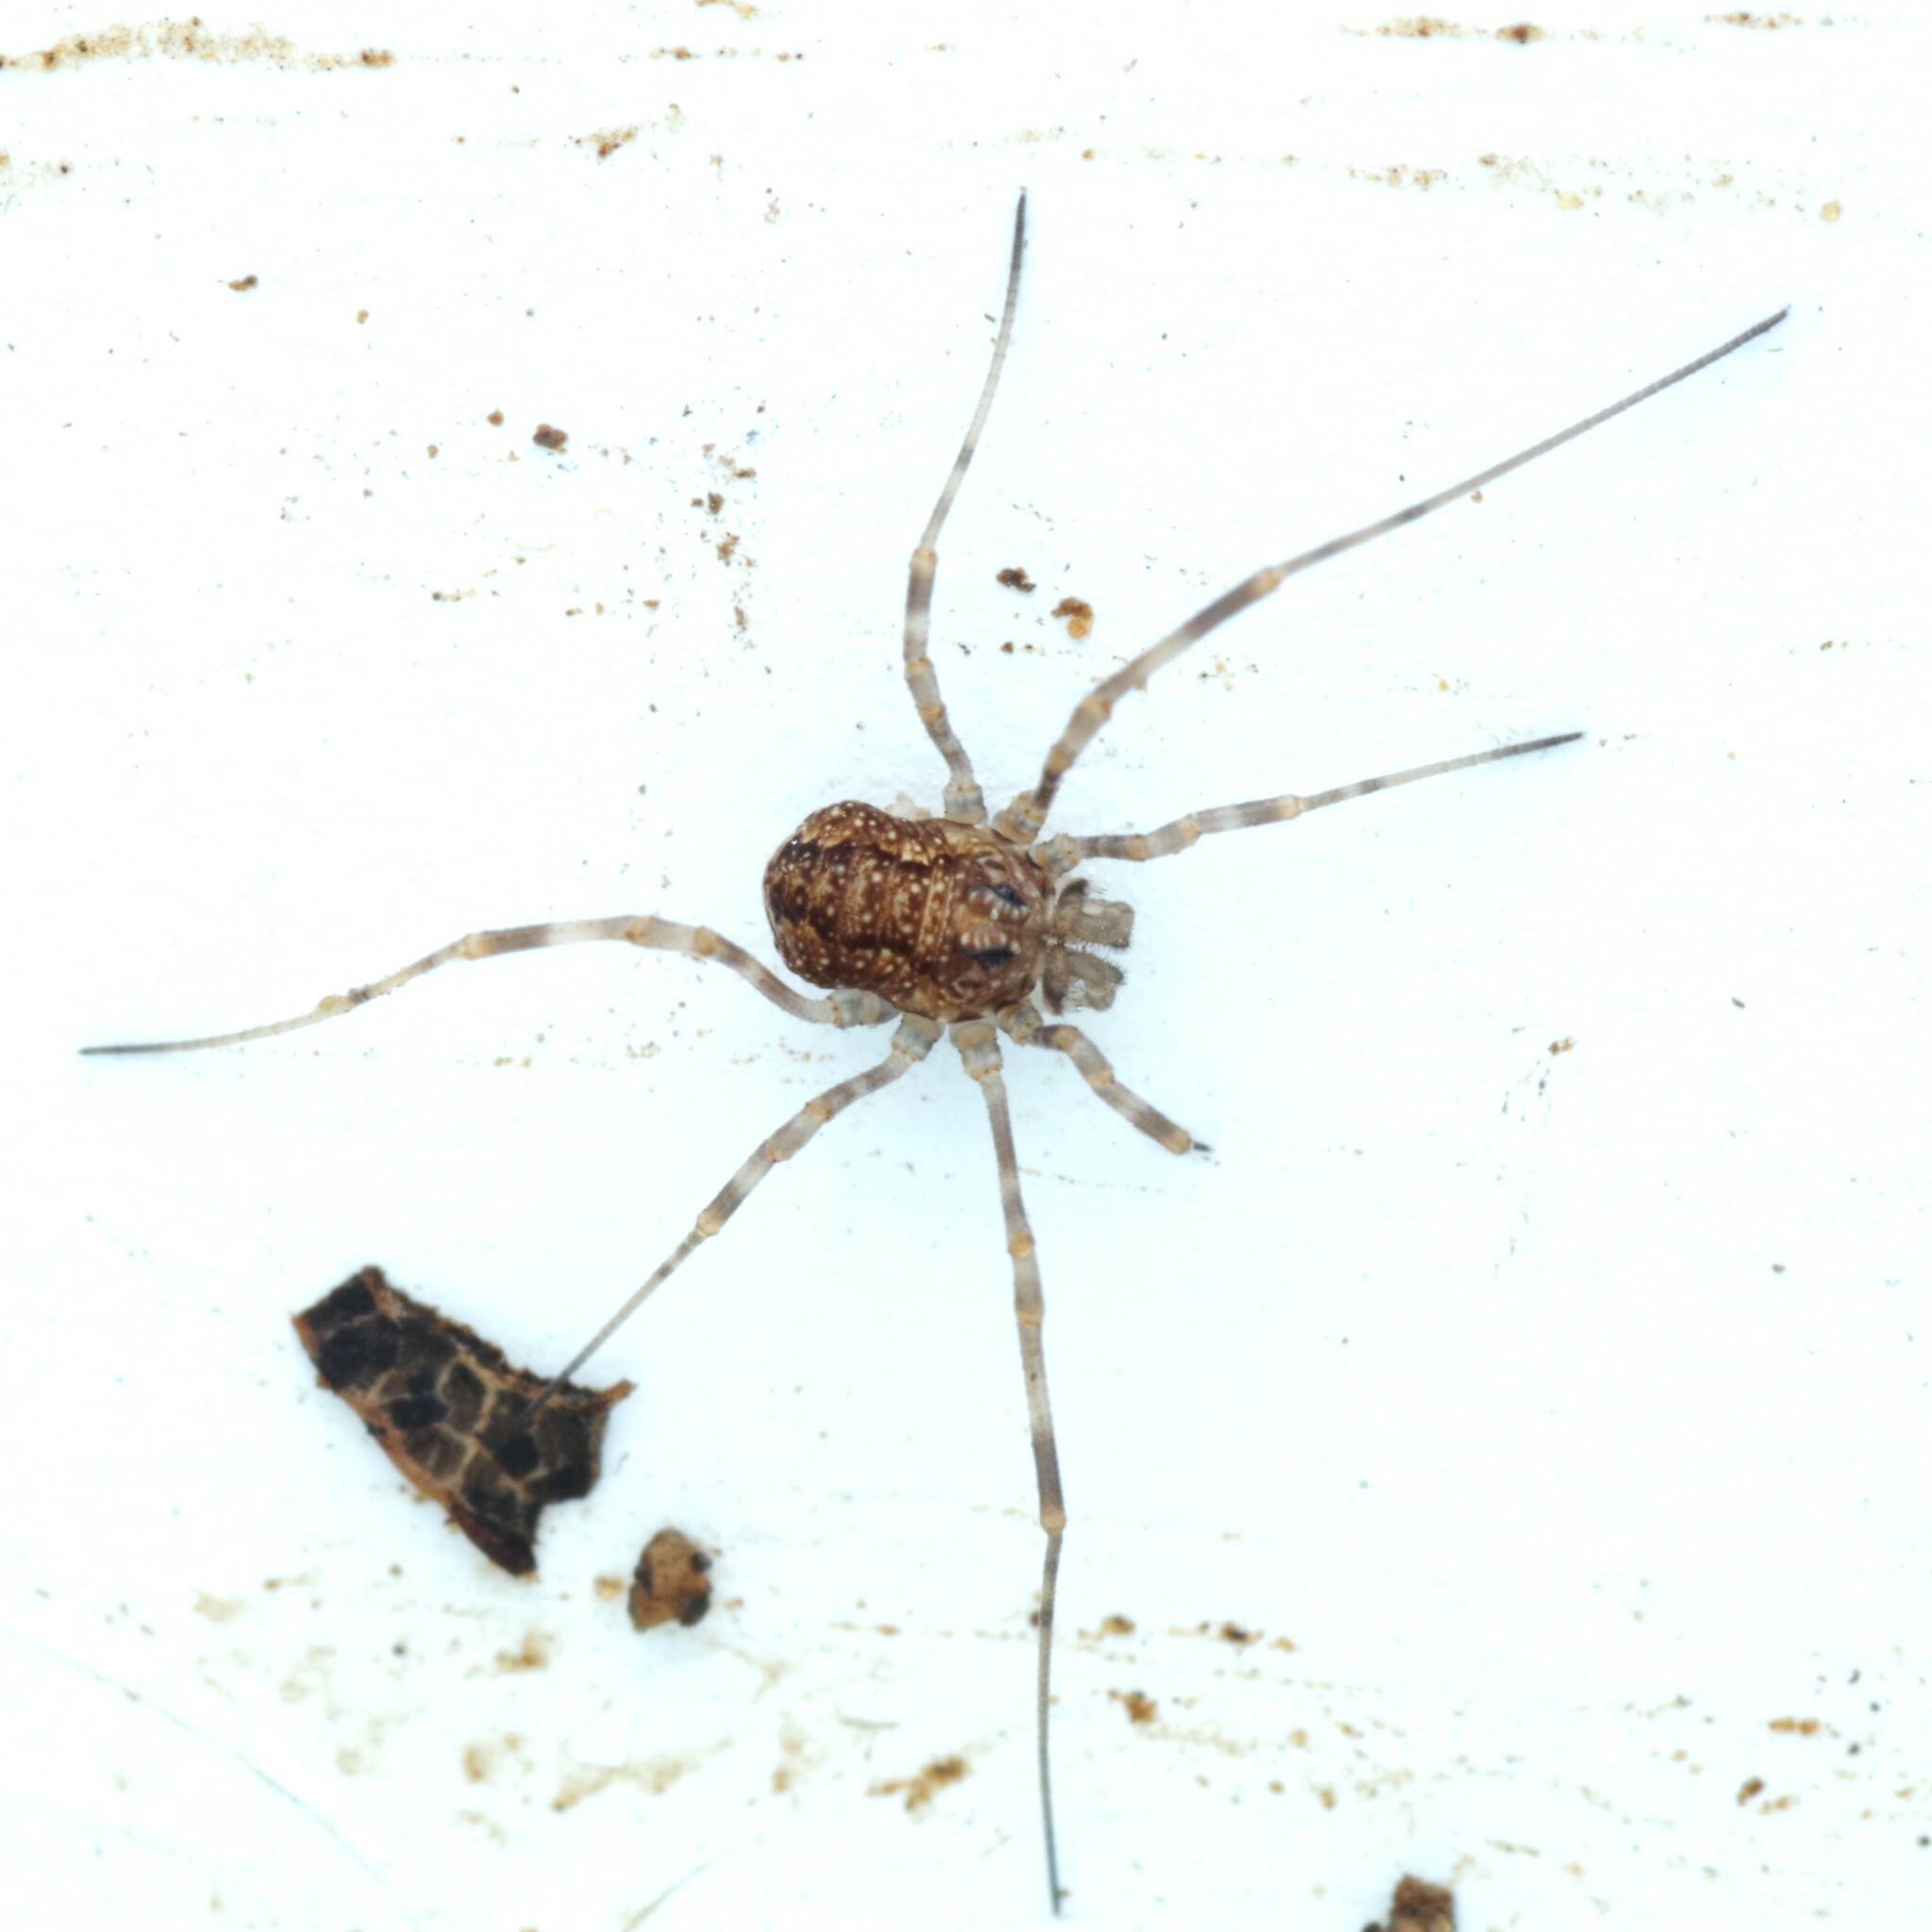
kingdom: Animalia
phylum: Arthropoda
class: Arachnida
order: Opiliones
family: Phalangiidae
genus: Rilaena
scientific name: Rilaena triangularis
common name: Spring harvestman
